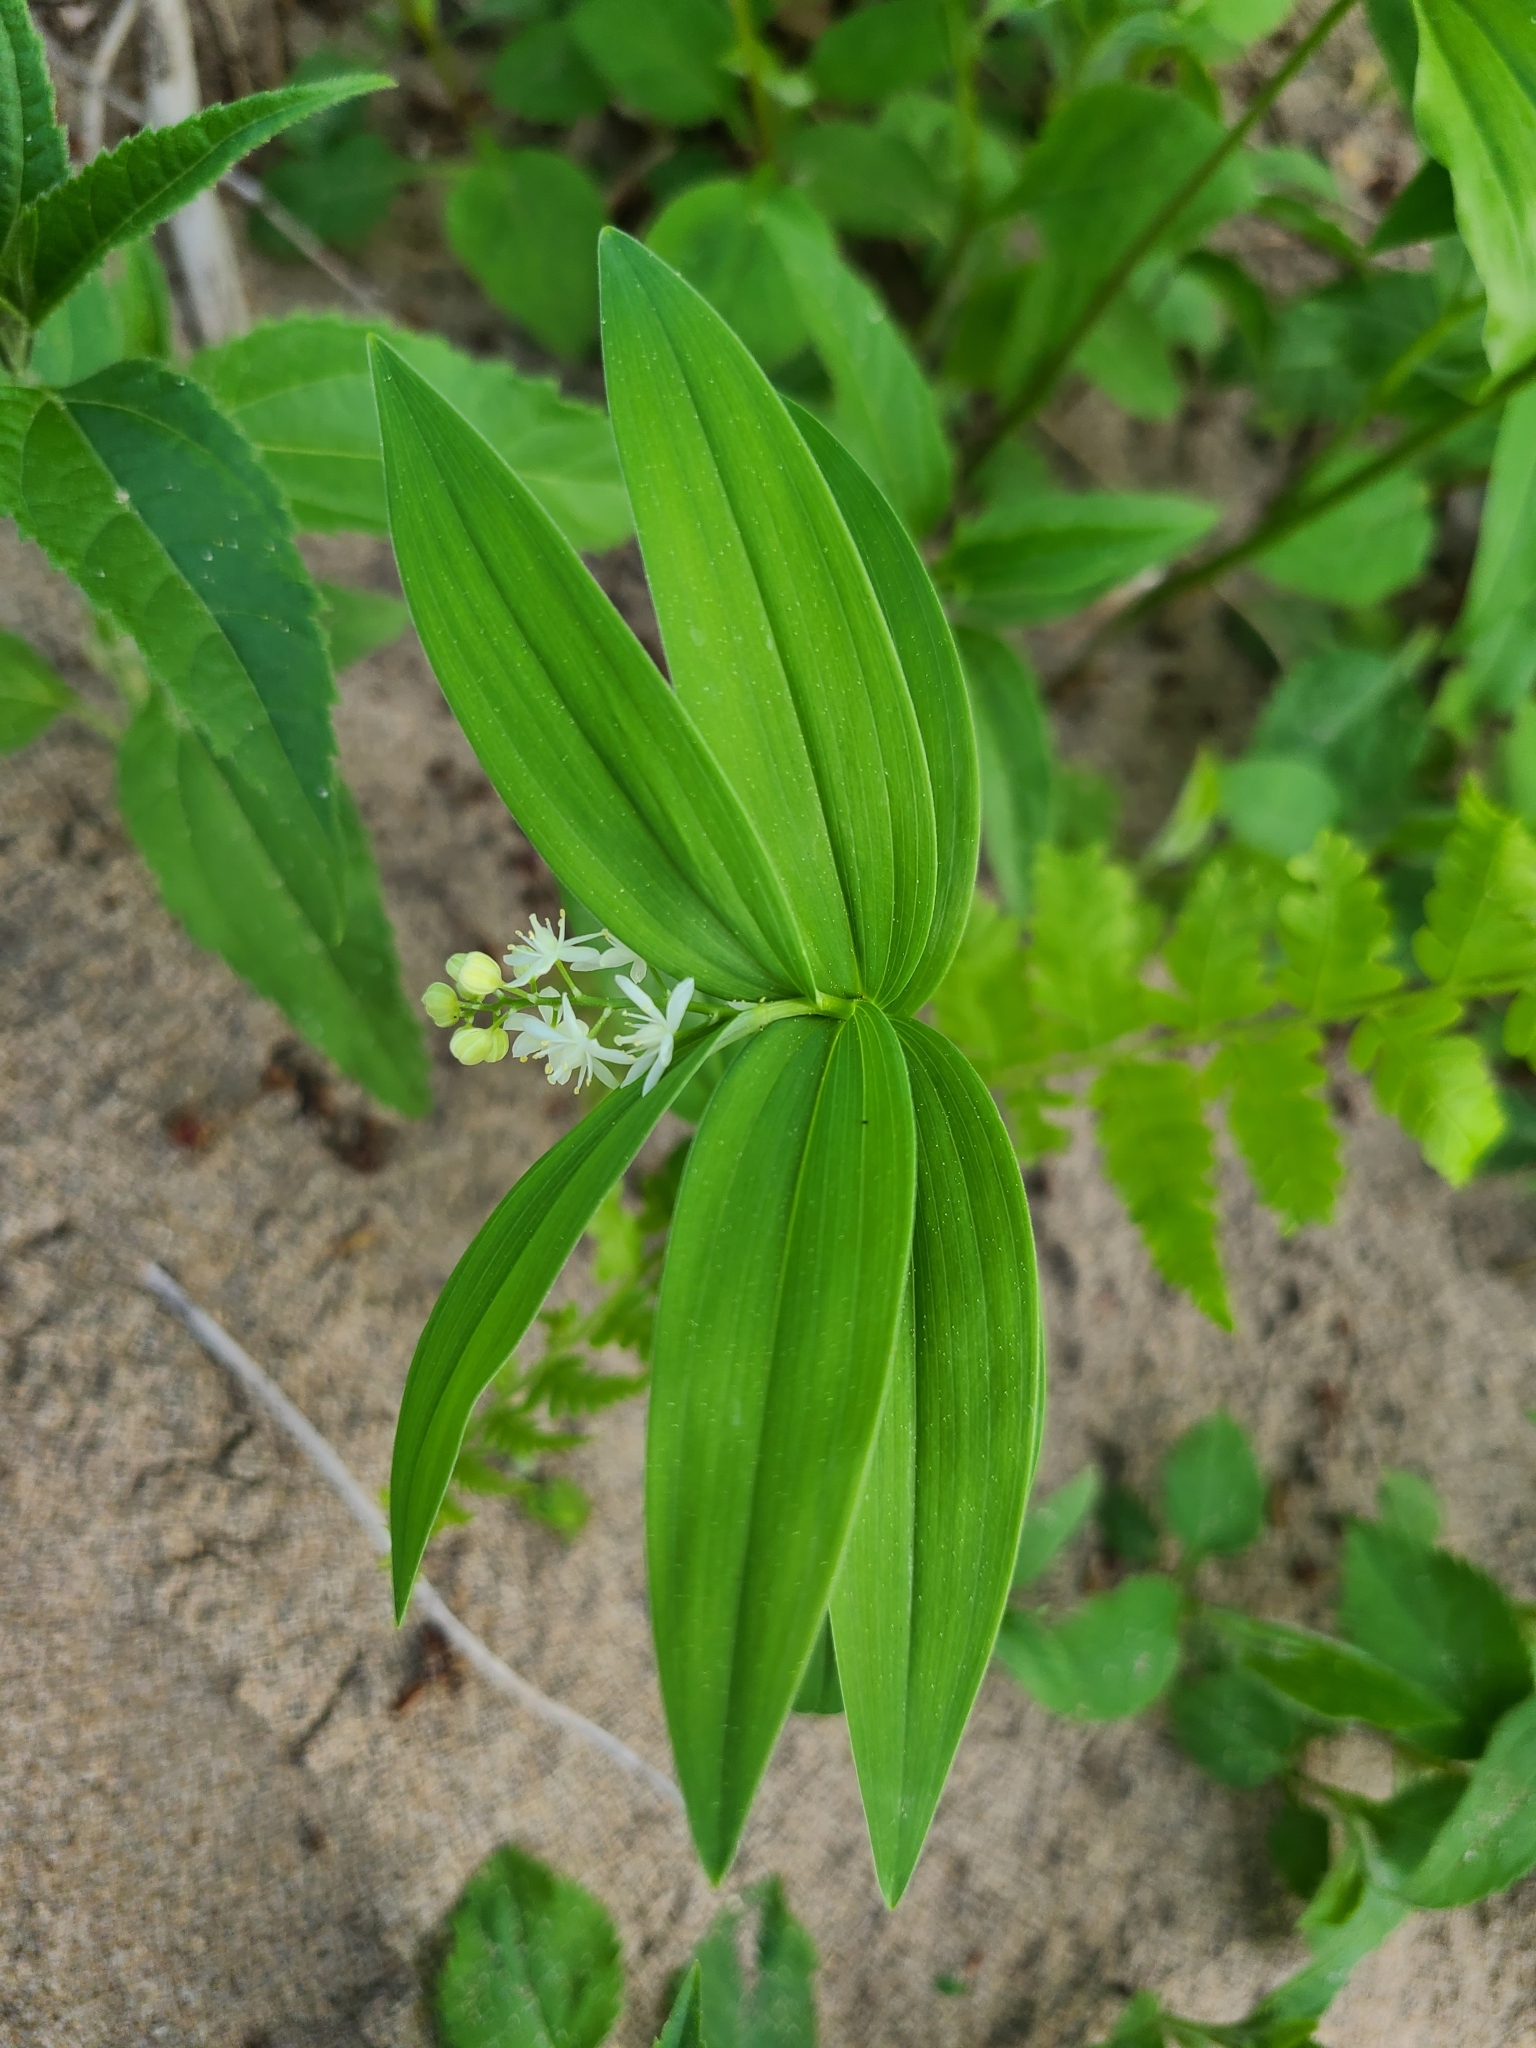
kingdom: Plantae
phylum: Tracheophyta
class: Liliopsida
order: Asparagales
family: Asparagaceae
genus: Maianthemum
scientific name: Maianthemum stellatum
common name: Little false solomon's seal
